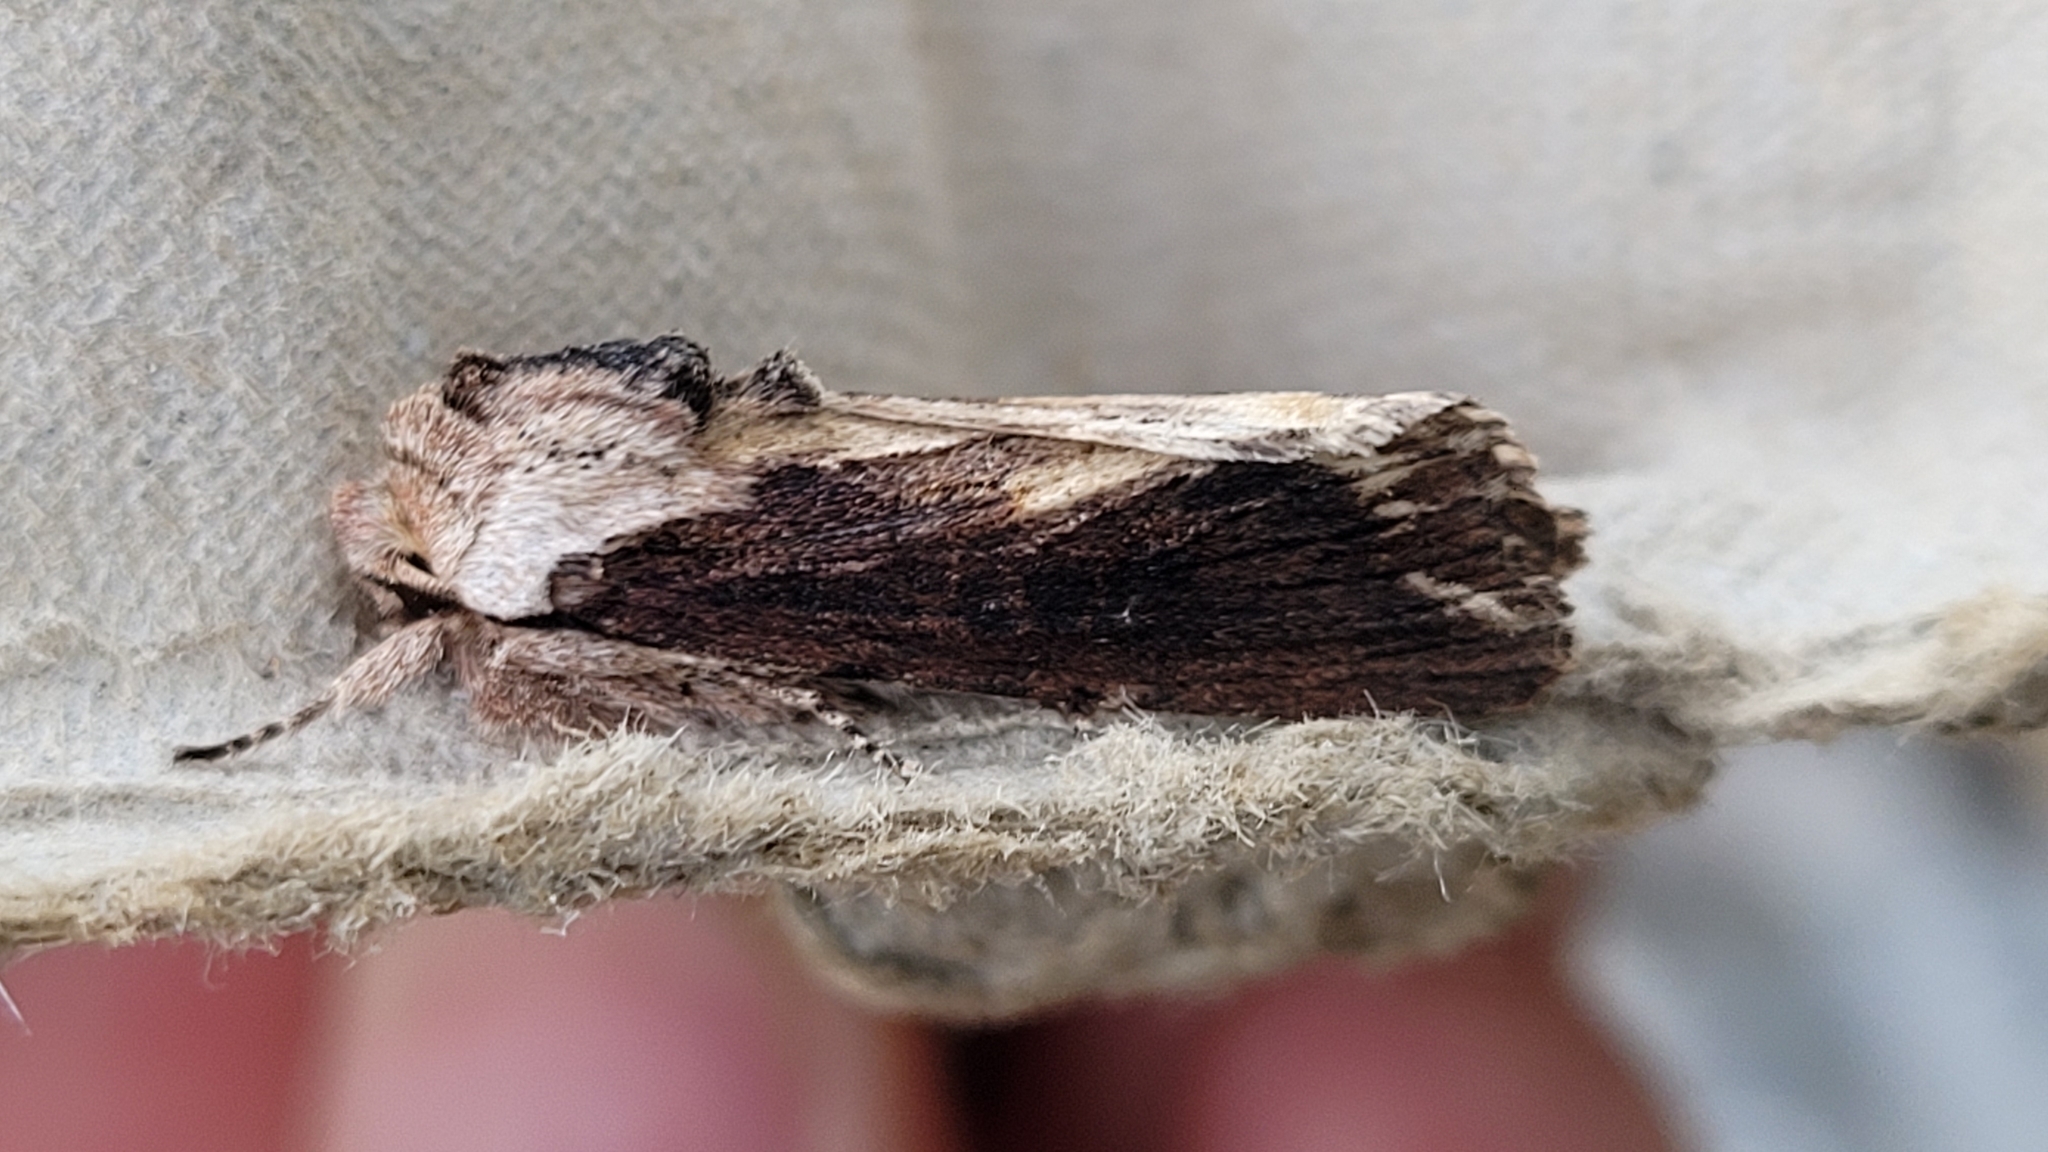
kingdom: Animalia
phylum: Arthropoda
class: Insecta
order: Lepidoptera
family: Noctuidae
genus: Egira
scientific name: Egira conspicillaris
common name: Silver cloud
